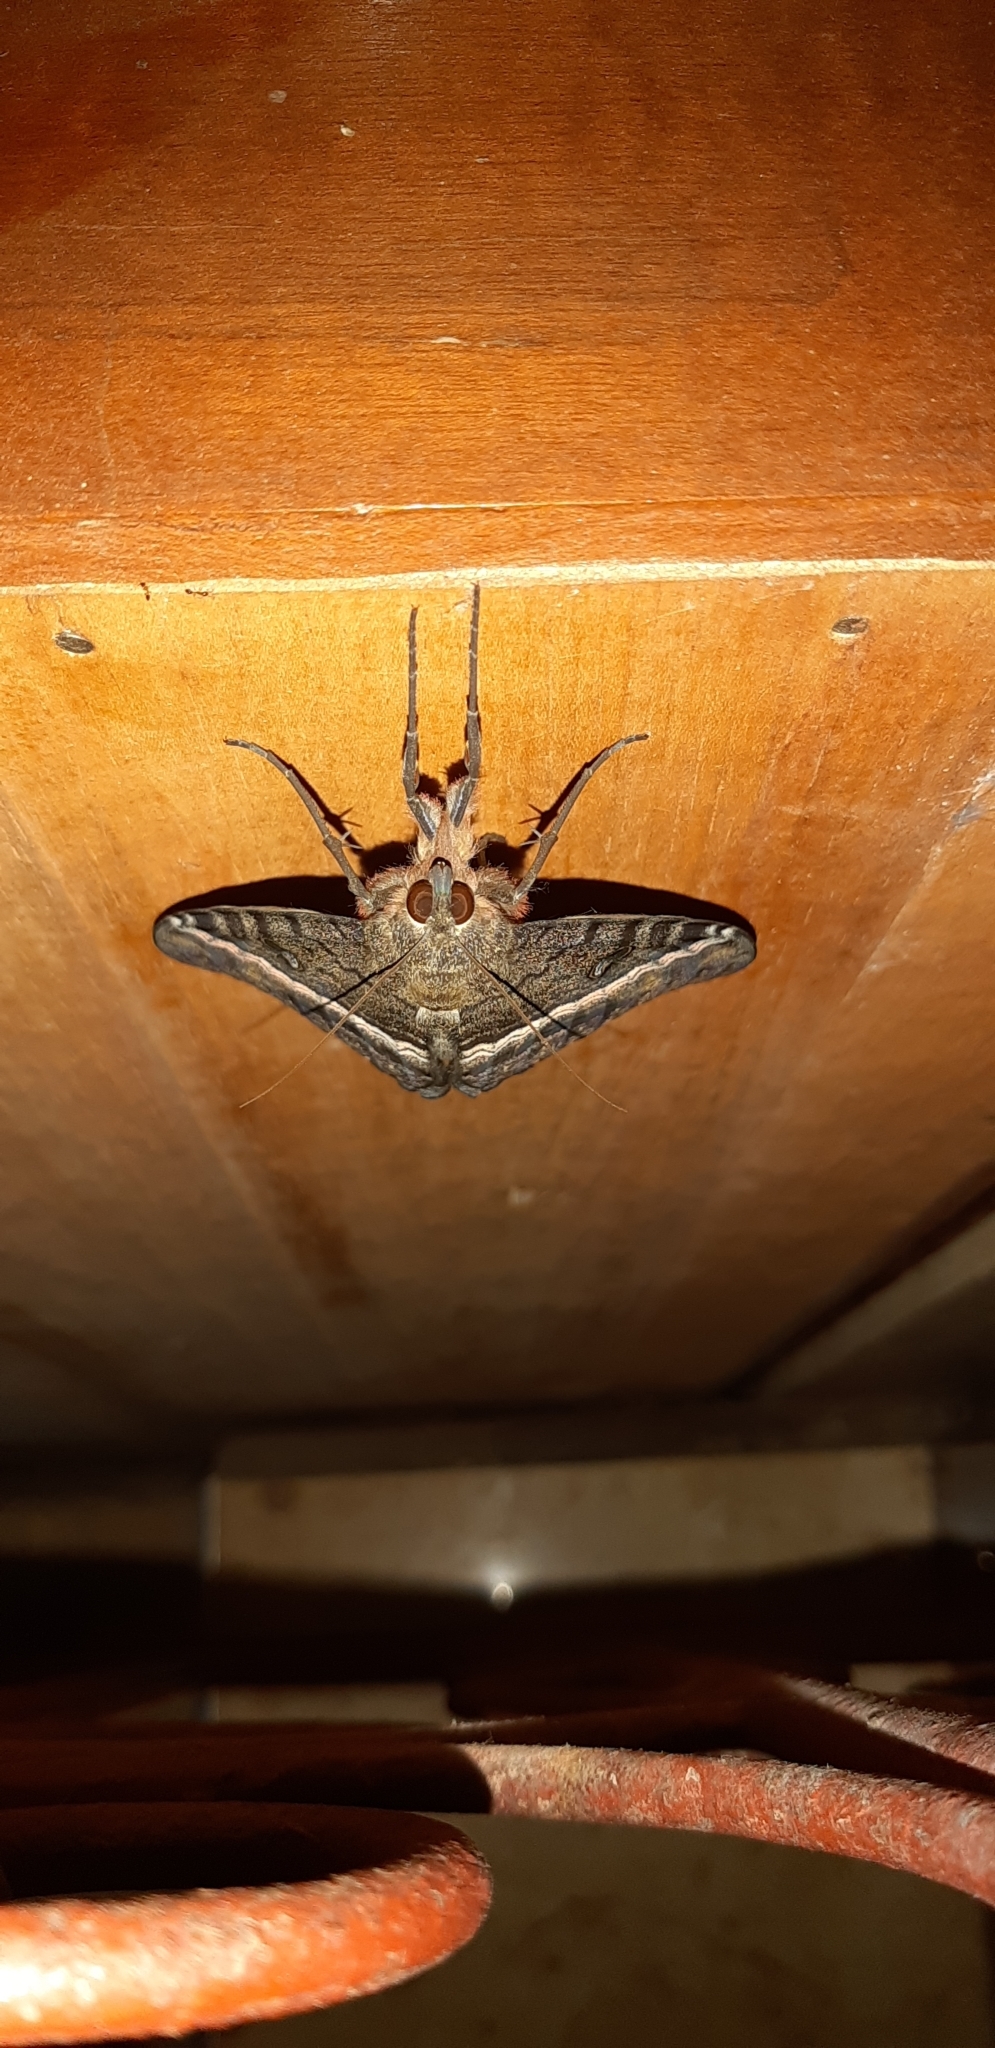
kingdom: Animalia
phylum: Arthropoda
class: Insecta
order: Lepidoptera
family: Erebidae
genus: Ascalapha
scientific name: Ascalapha odorata
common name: Black witch
